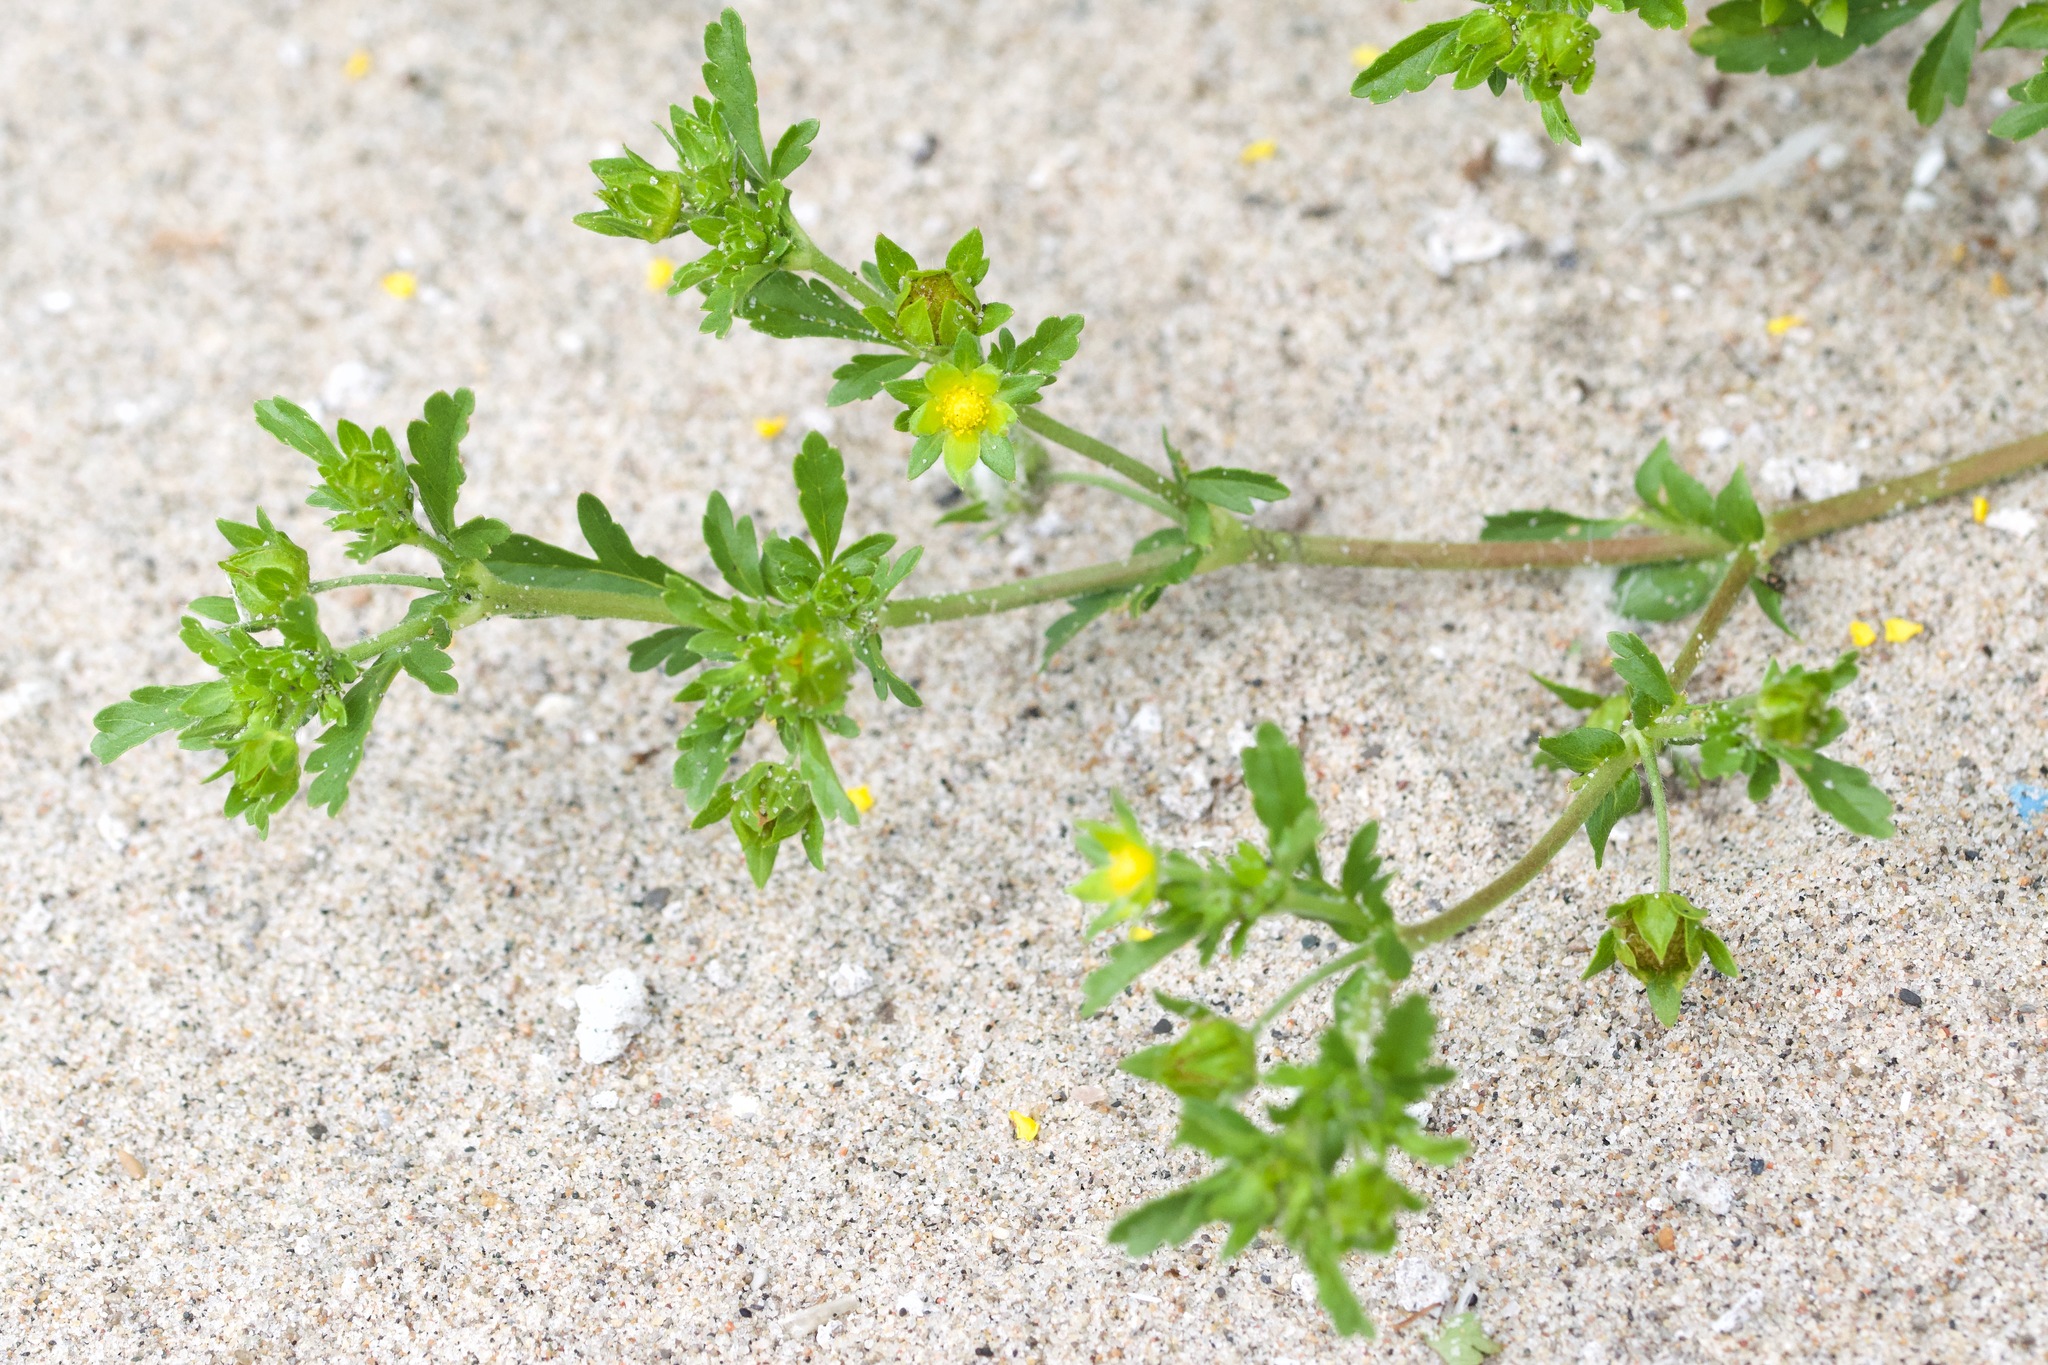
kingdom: Plantae
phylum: Tracheophyta
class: Magnoliopsida
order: Rosales
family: Rosaceae
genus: Potentilla
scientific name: Potentilla supina
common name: Prostrate cinquefoil
